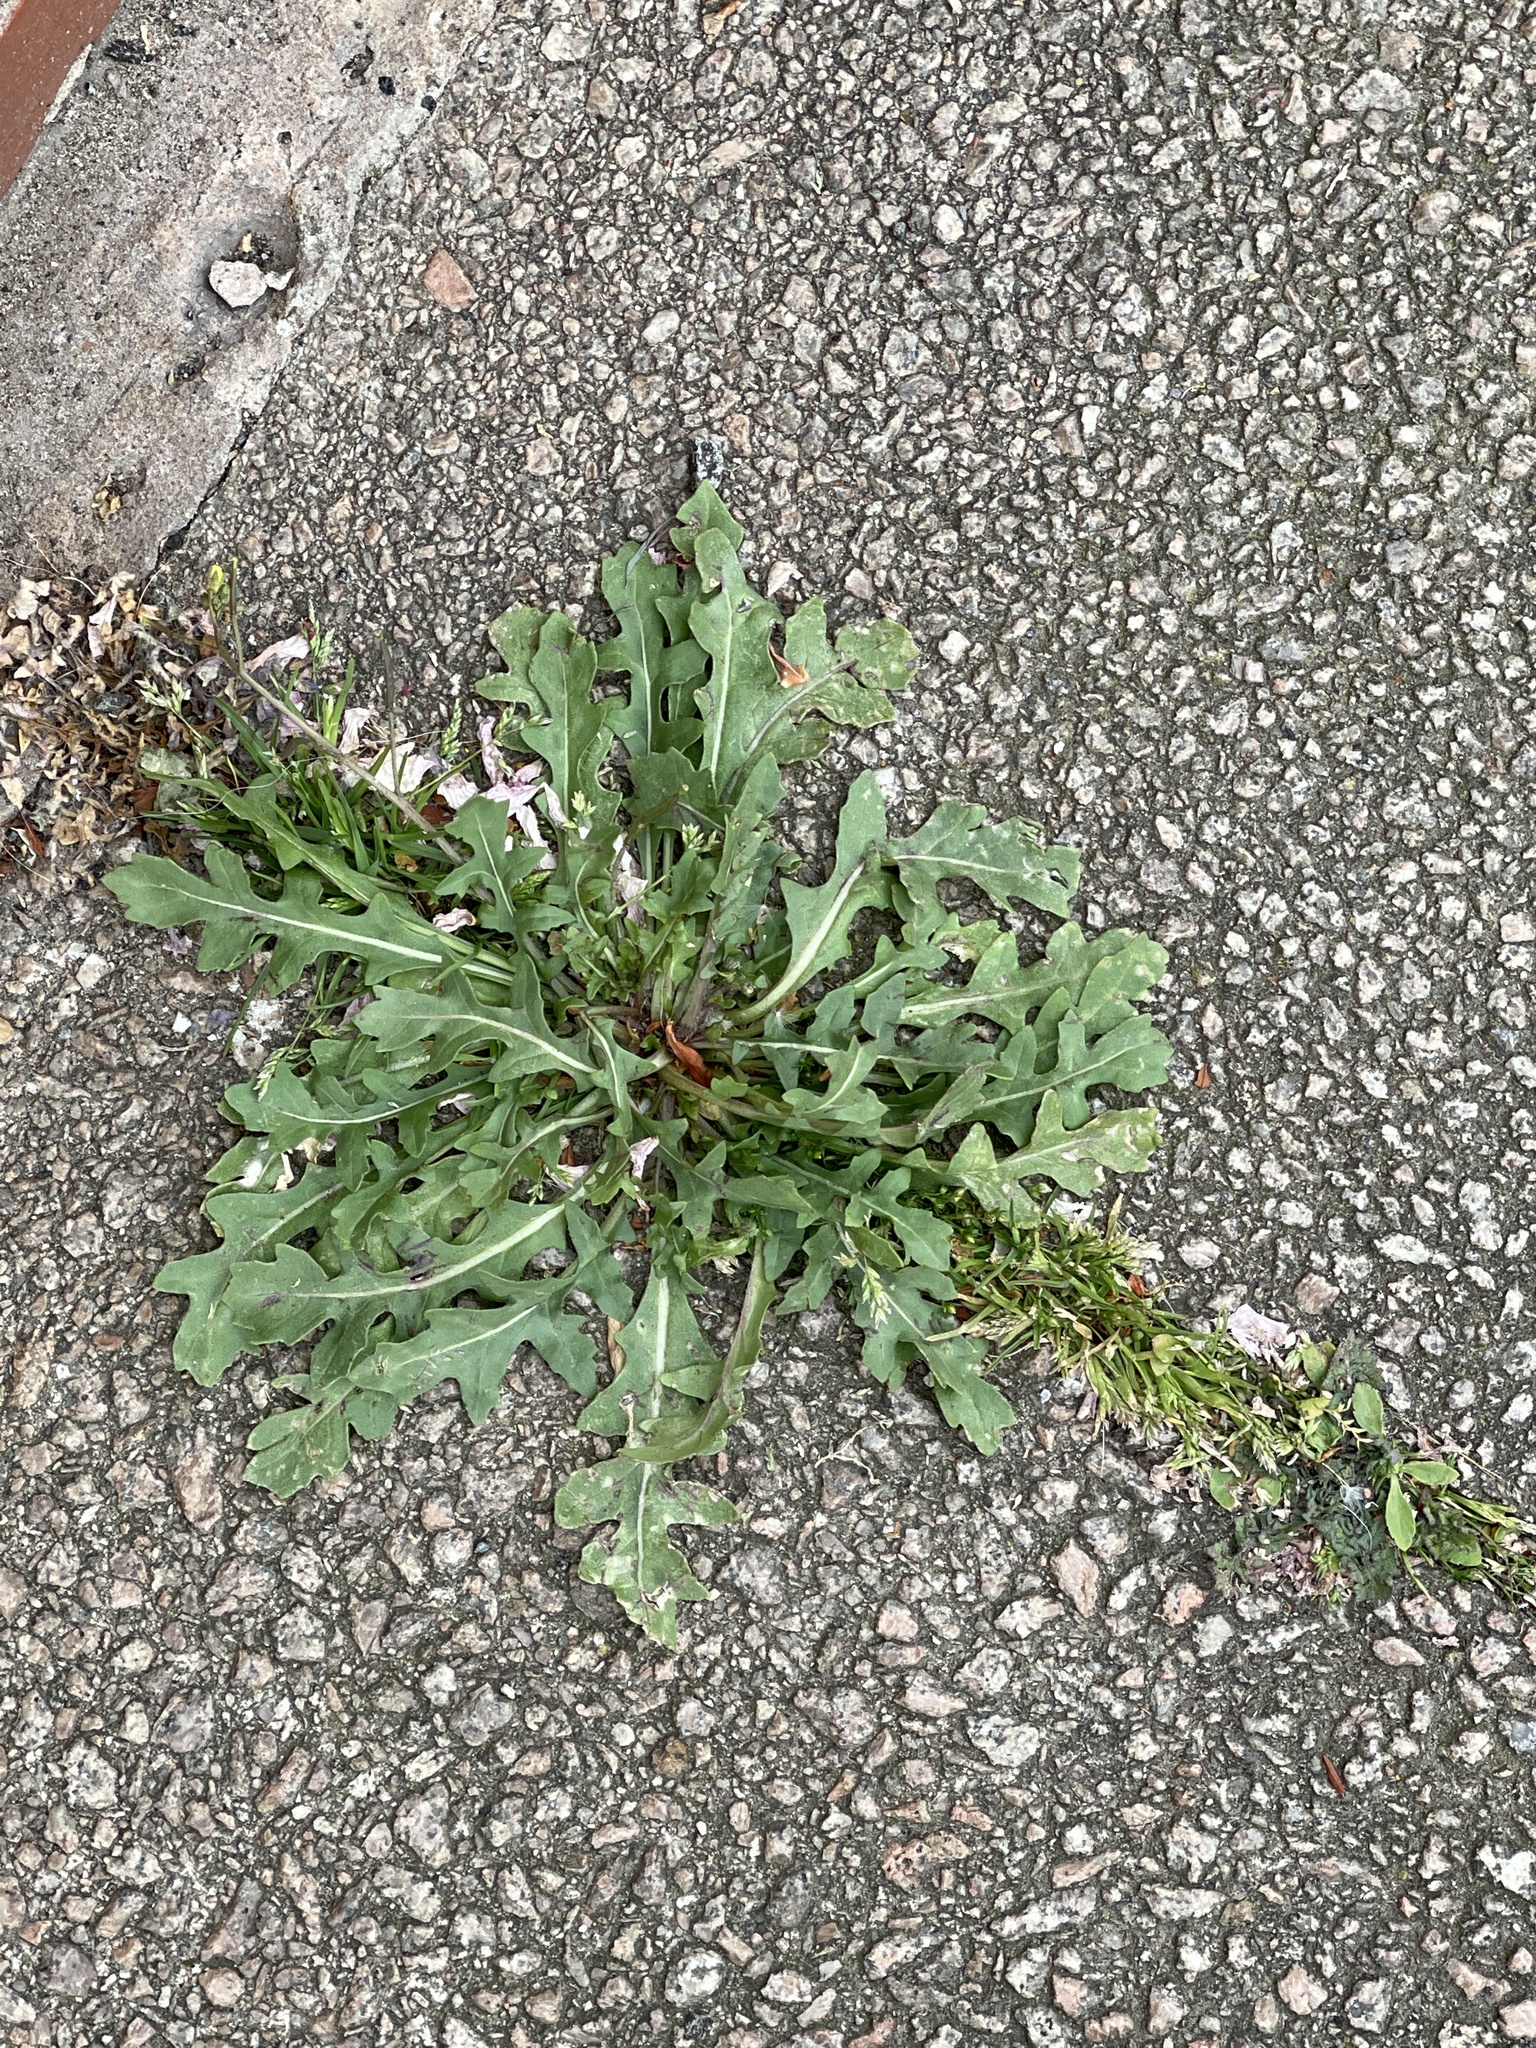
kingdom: Plantae
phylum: Tracheophyta
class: Magnoliopsida
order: Brassicales
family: Brassicaceae
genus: Diplotaxis
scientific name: Diplotaxis muralis
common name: Annual wall-rocket
